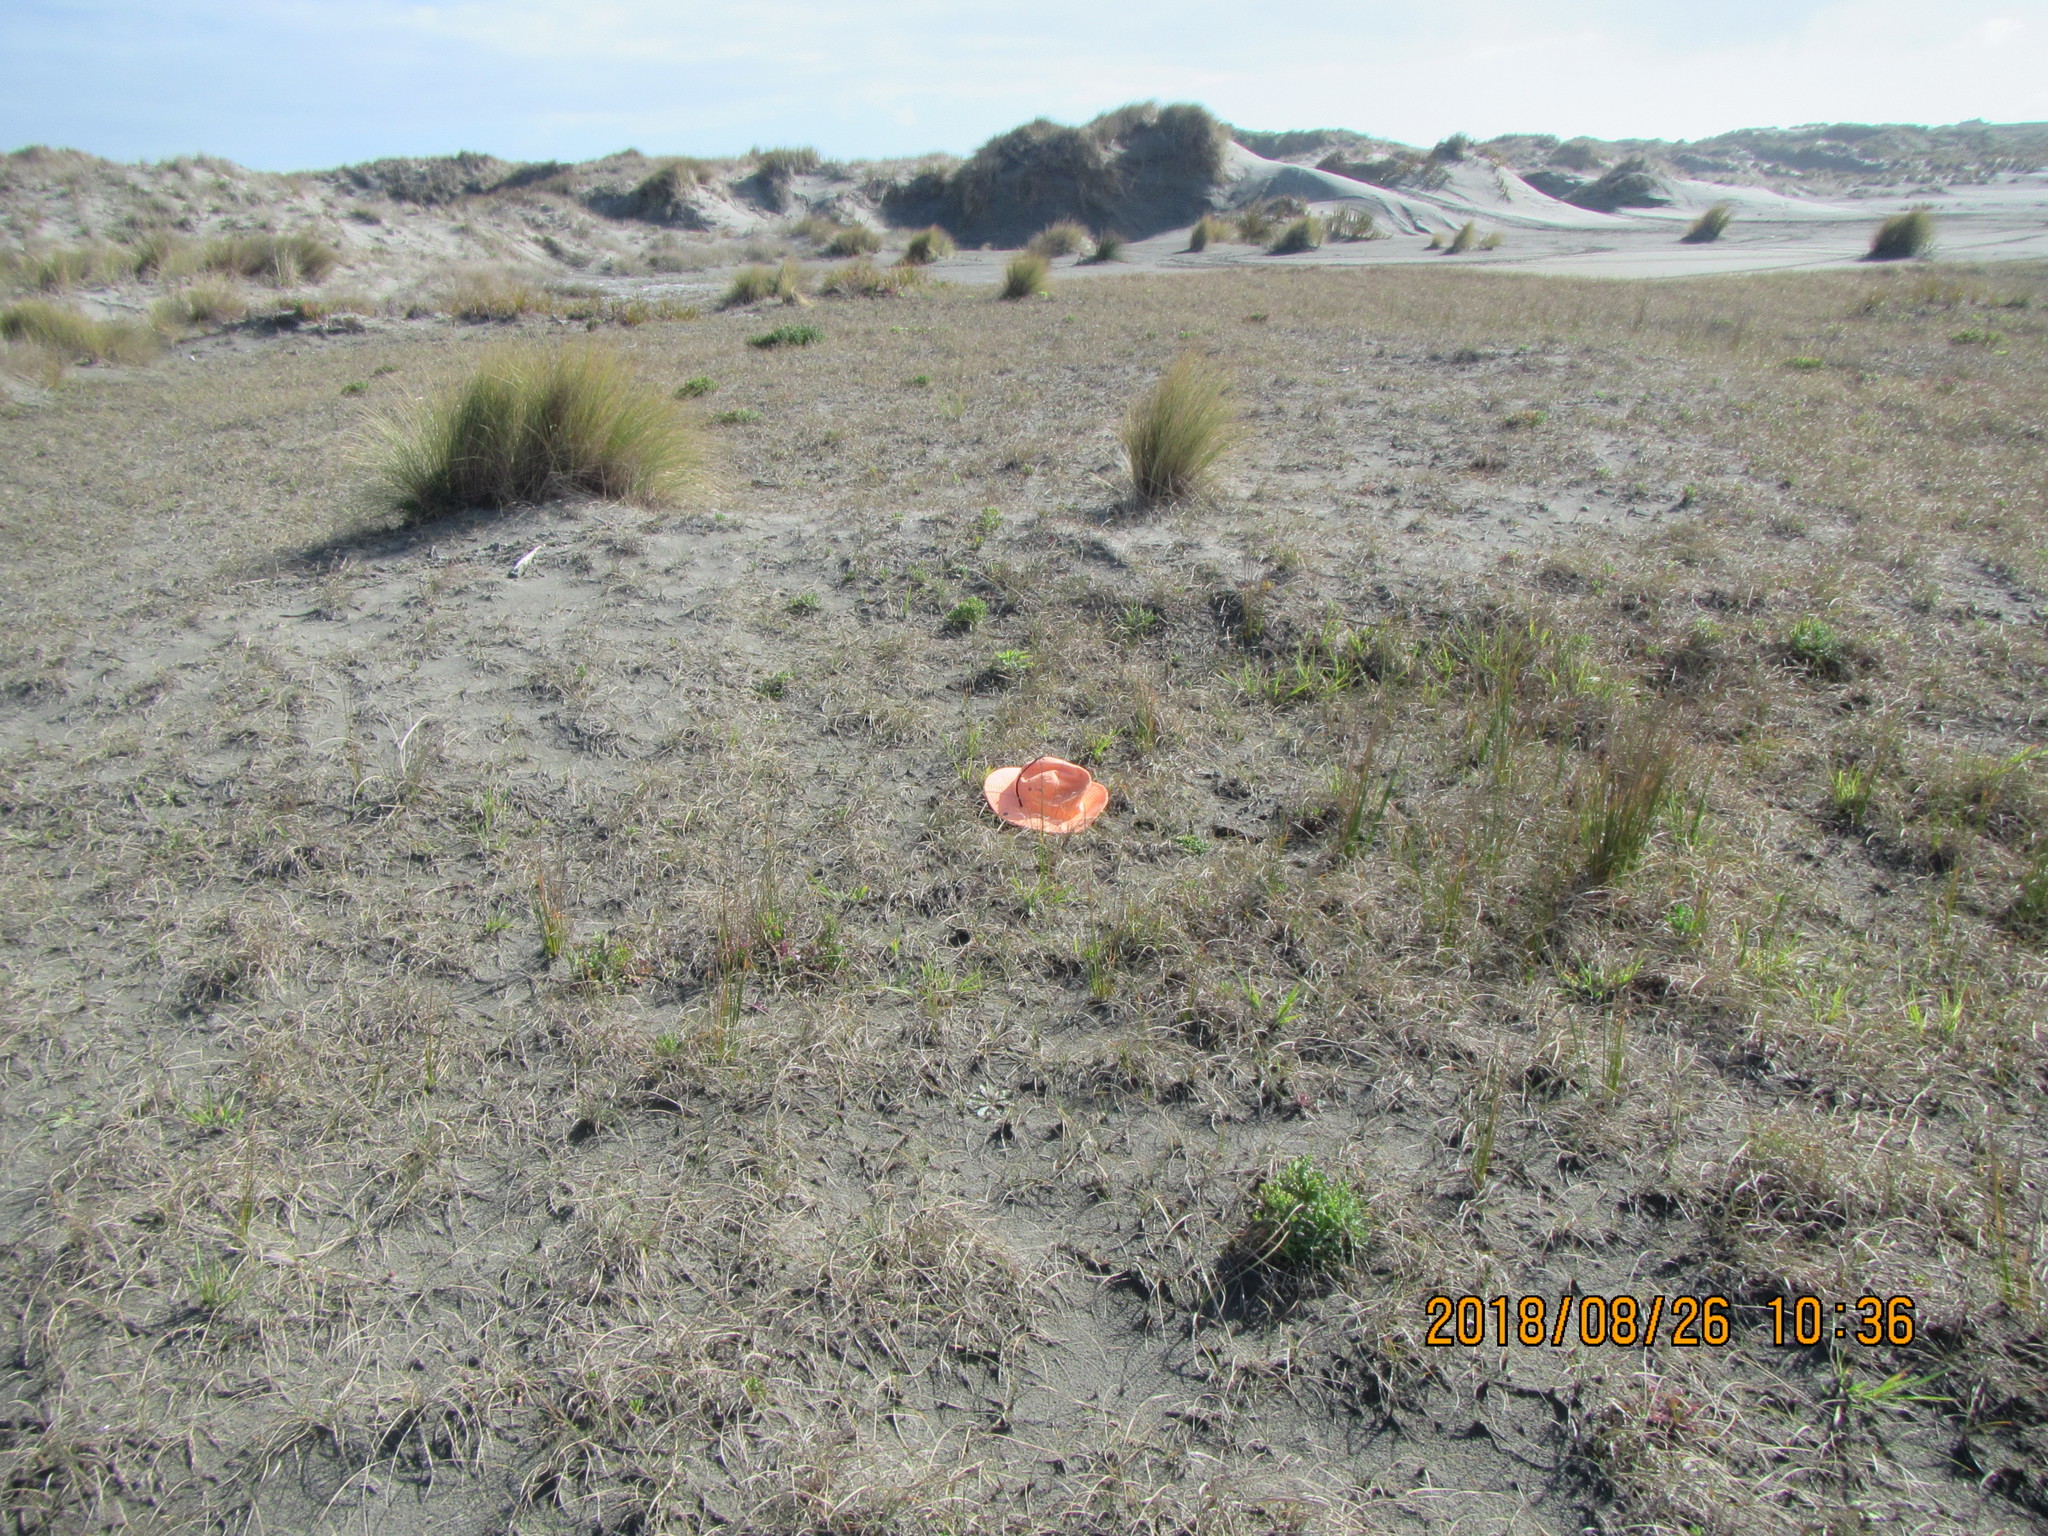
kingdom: Plantae
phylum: Tracheophyta
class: Magnoliopsida
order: Asterales
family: Goodeniaceae
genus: Goodenia
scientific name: Goodenia radicans
